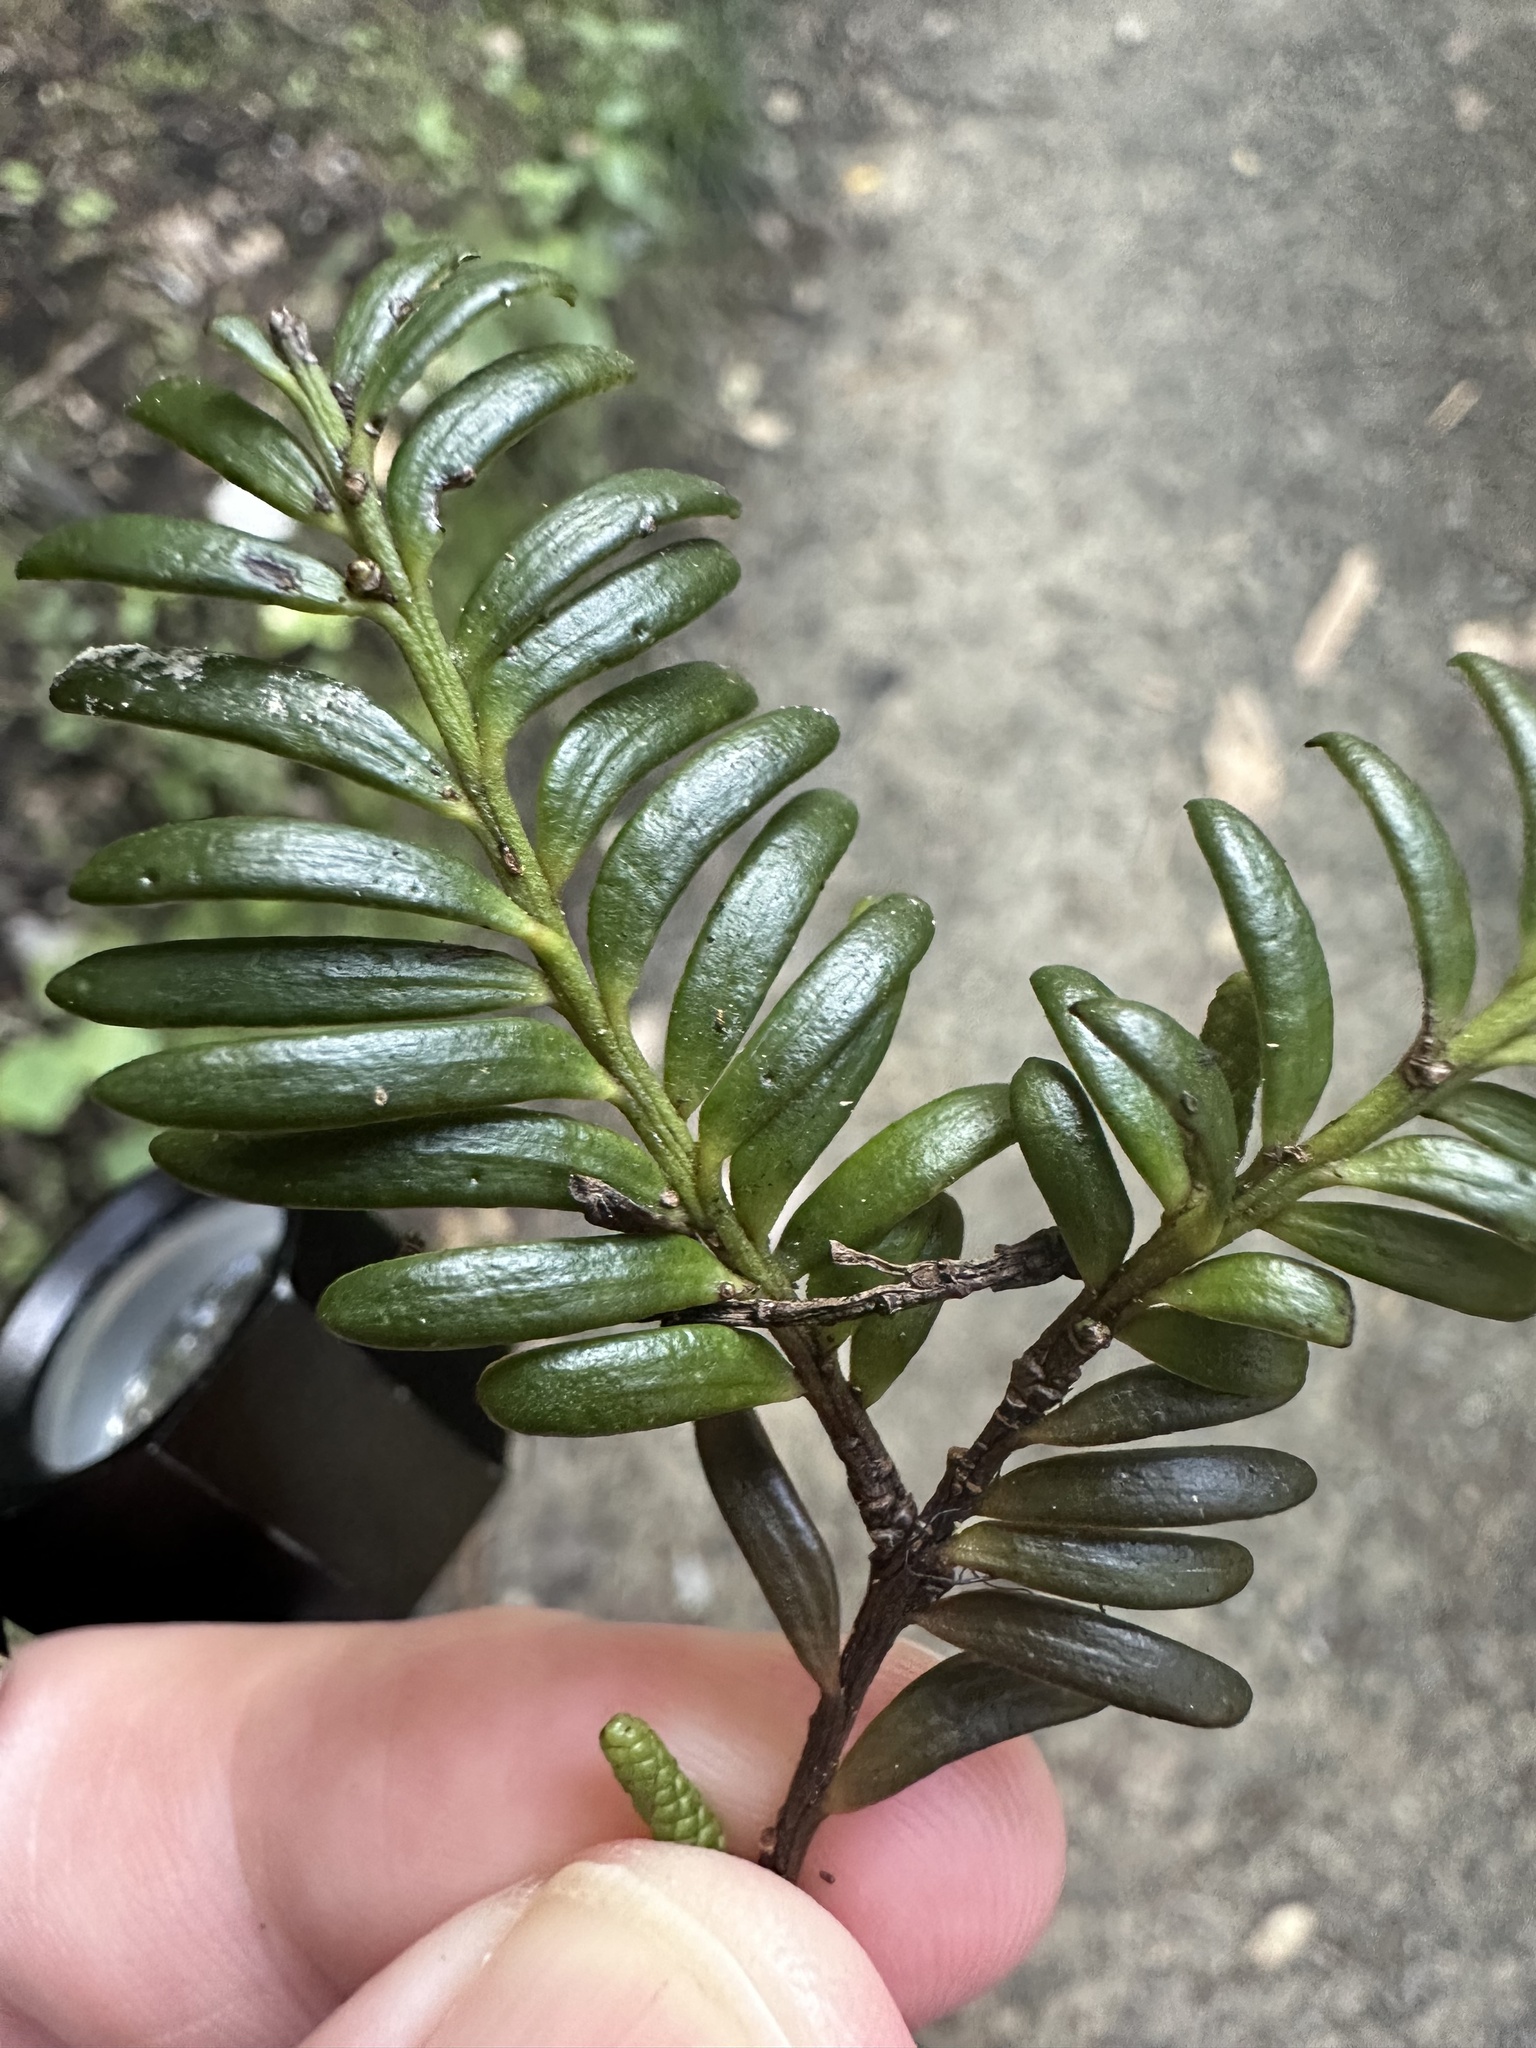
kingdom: Plantae
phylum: Tracheophyta
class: Pinopsida
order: Pinales
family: Podocarpaceae
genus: Prumnopitys
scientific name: Prumnopitys ferruginea
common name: Brown pine
